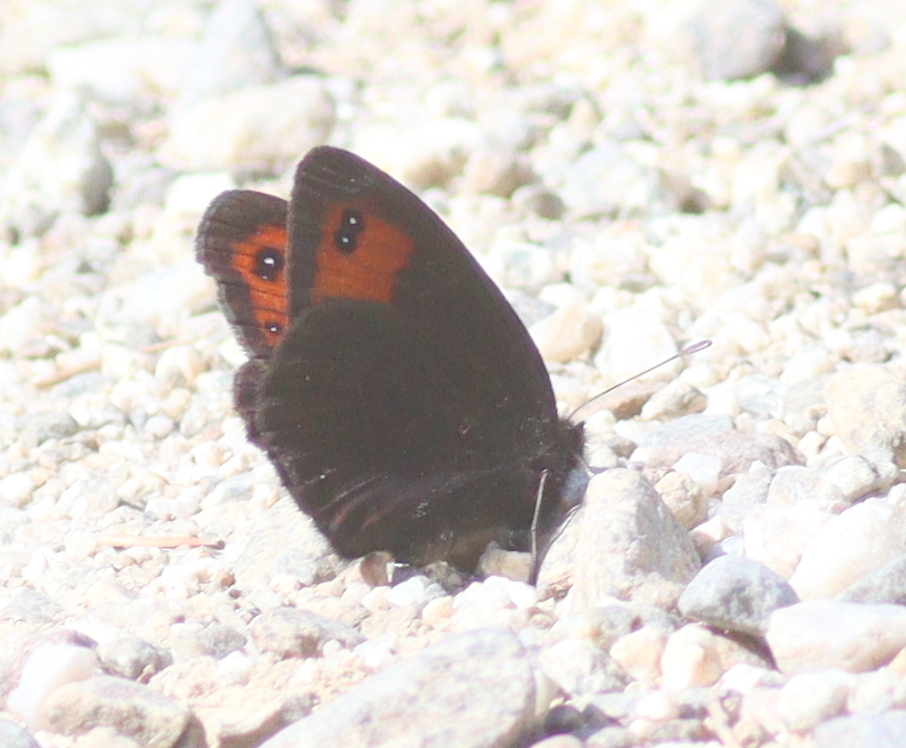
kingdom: Animalia
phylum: Arthropoda
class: Insecta
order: Lepidoptera
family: Nymphalidae
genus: Erebia
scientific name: Erebia meolans
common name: Piedmont ringlet
